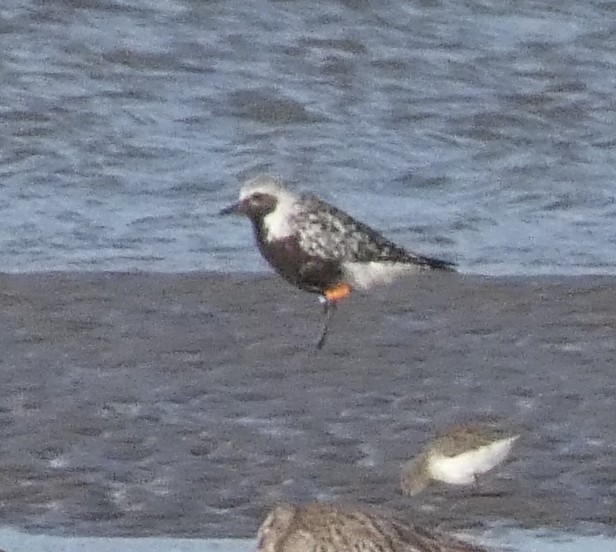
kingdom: Animalia
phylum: Chordata
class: Aves
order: Charadriiformes
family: Charadriidae
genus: Pluvialis
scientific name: Pluvialis squatarola
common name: Grey plover
